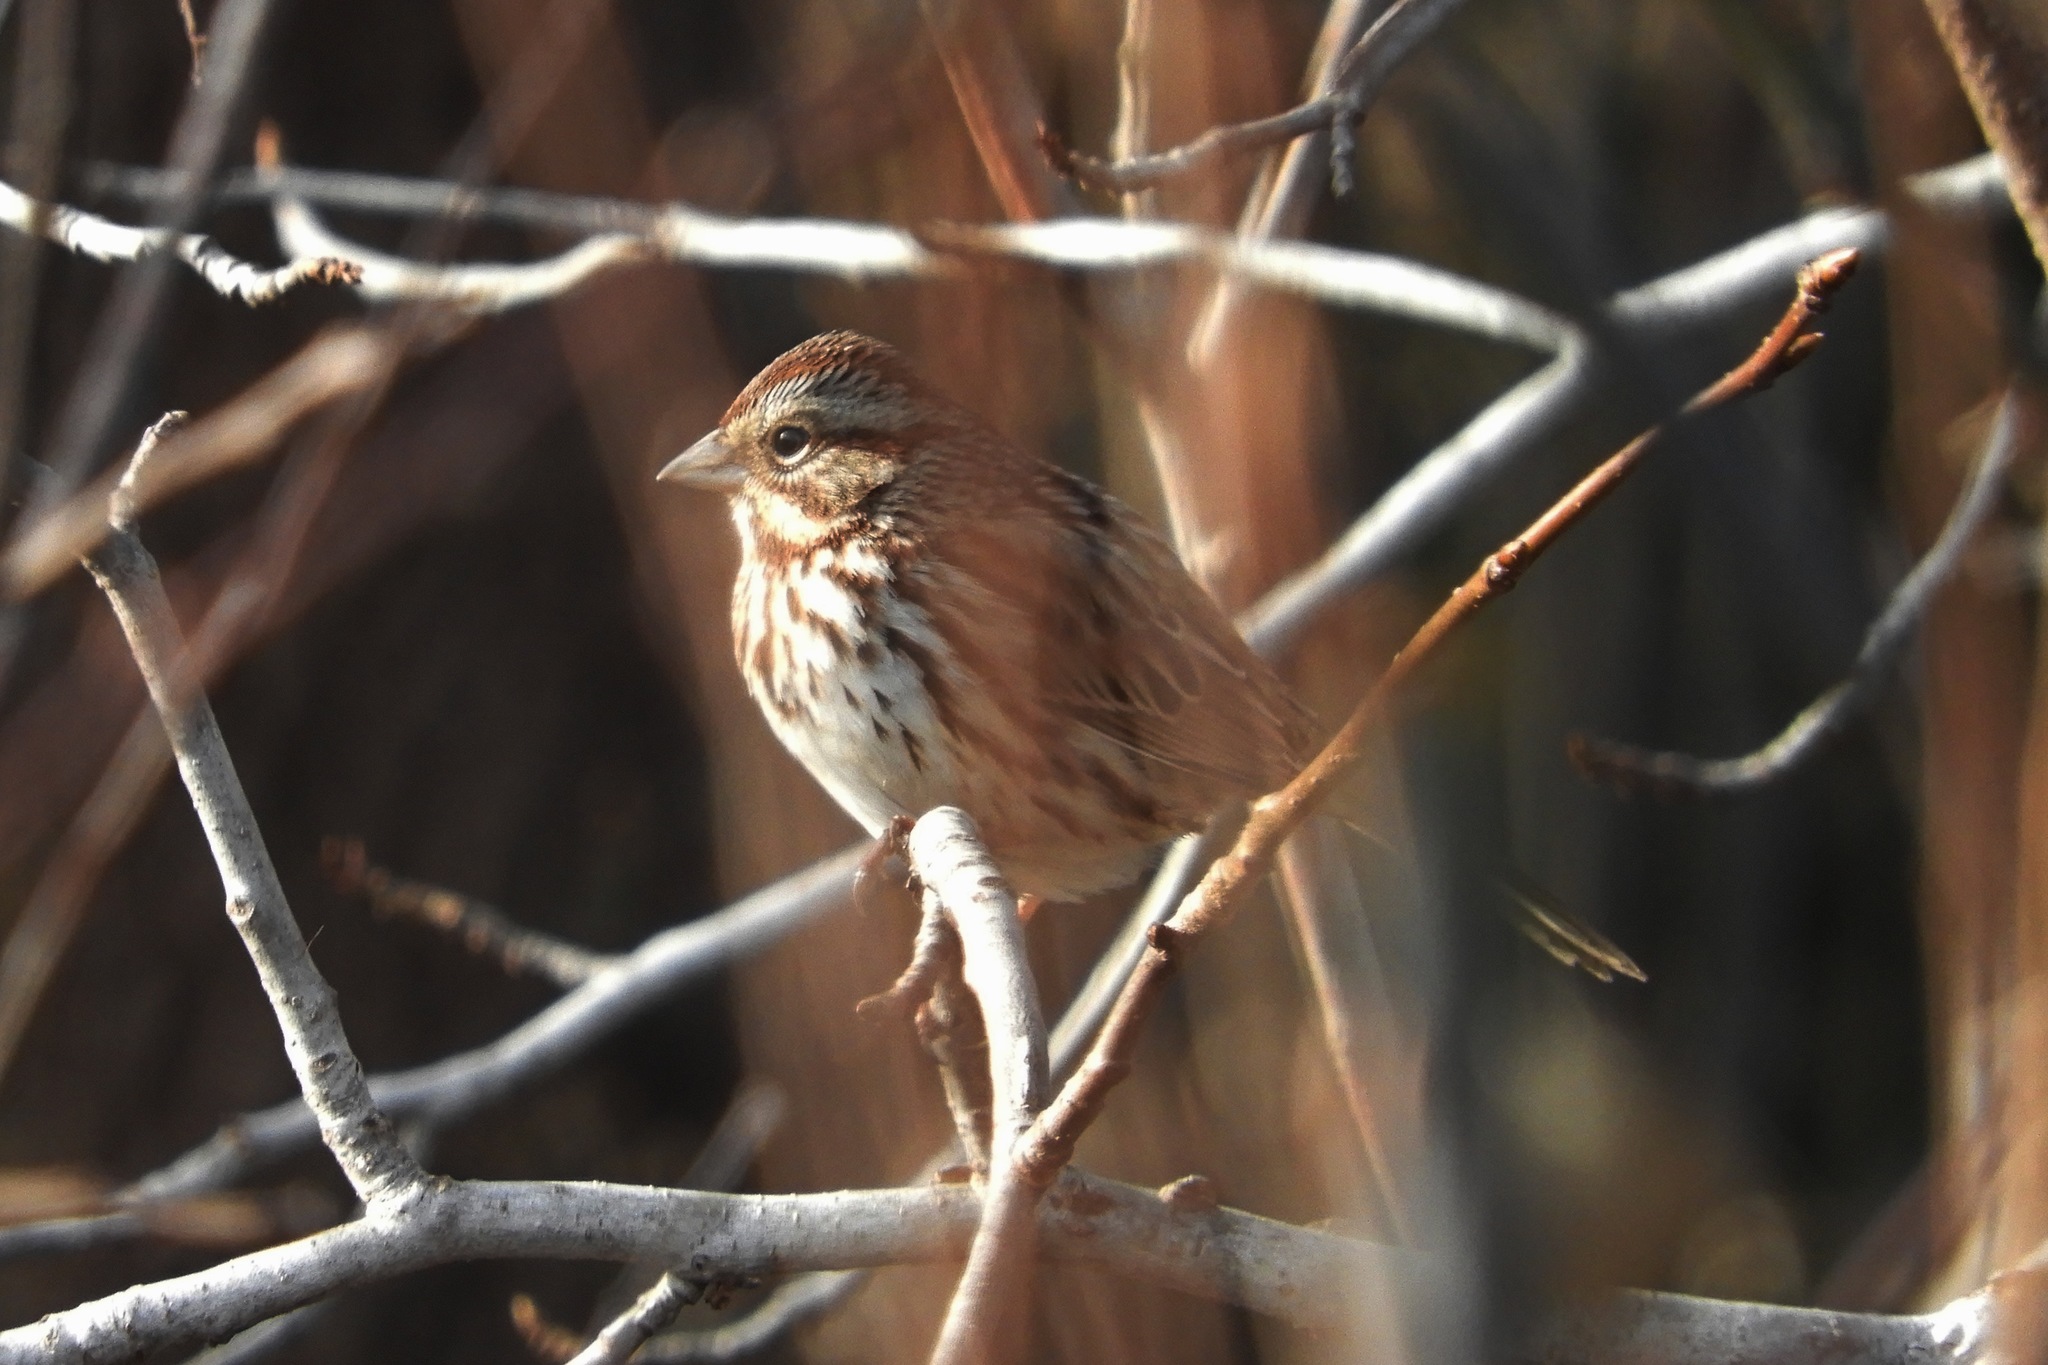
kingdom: Animalia
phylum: Chordata
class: Aves
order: Passeriformes
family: Passerellidae
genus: Melospiza
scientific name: Melospiza melodia
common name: Song sparrow
